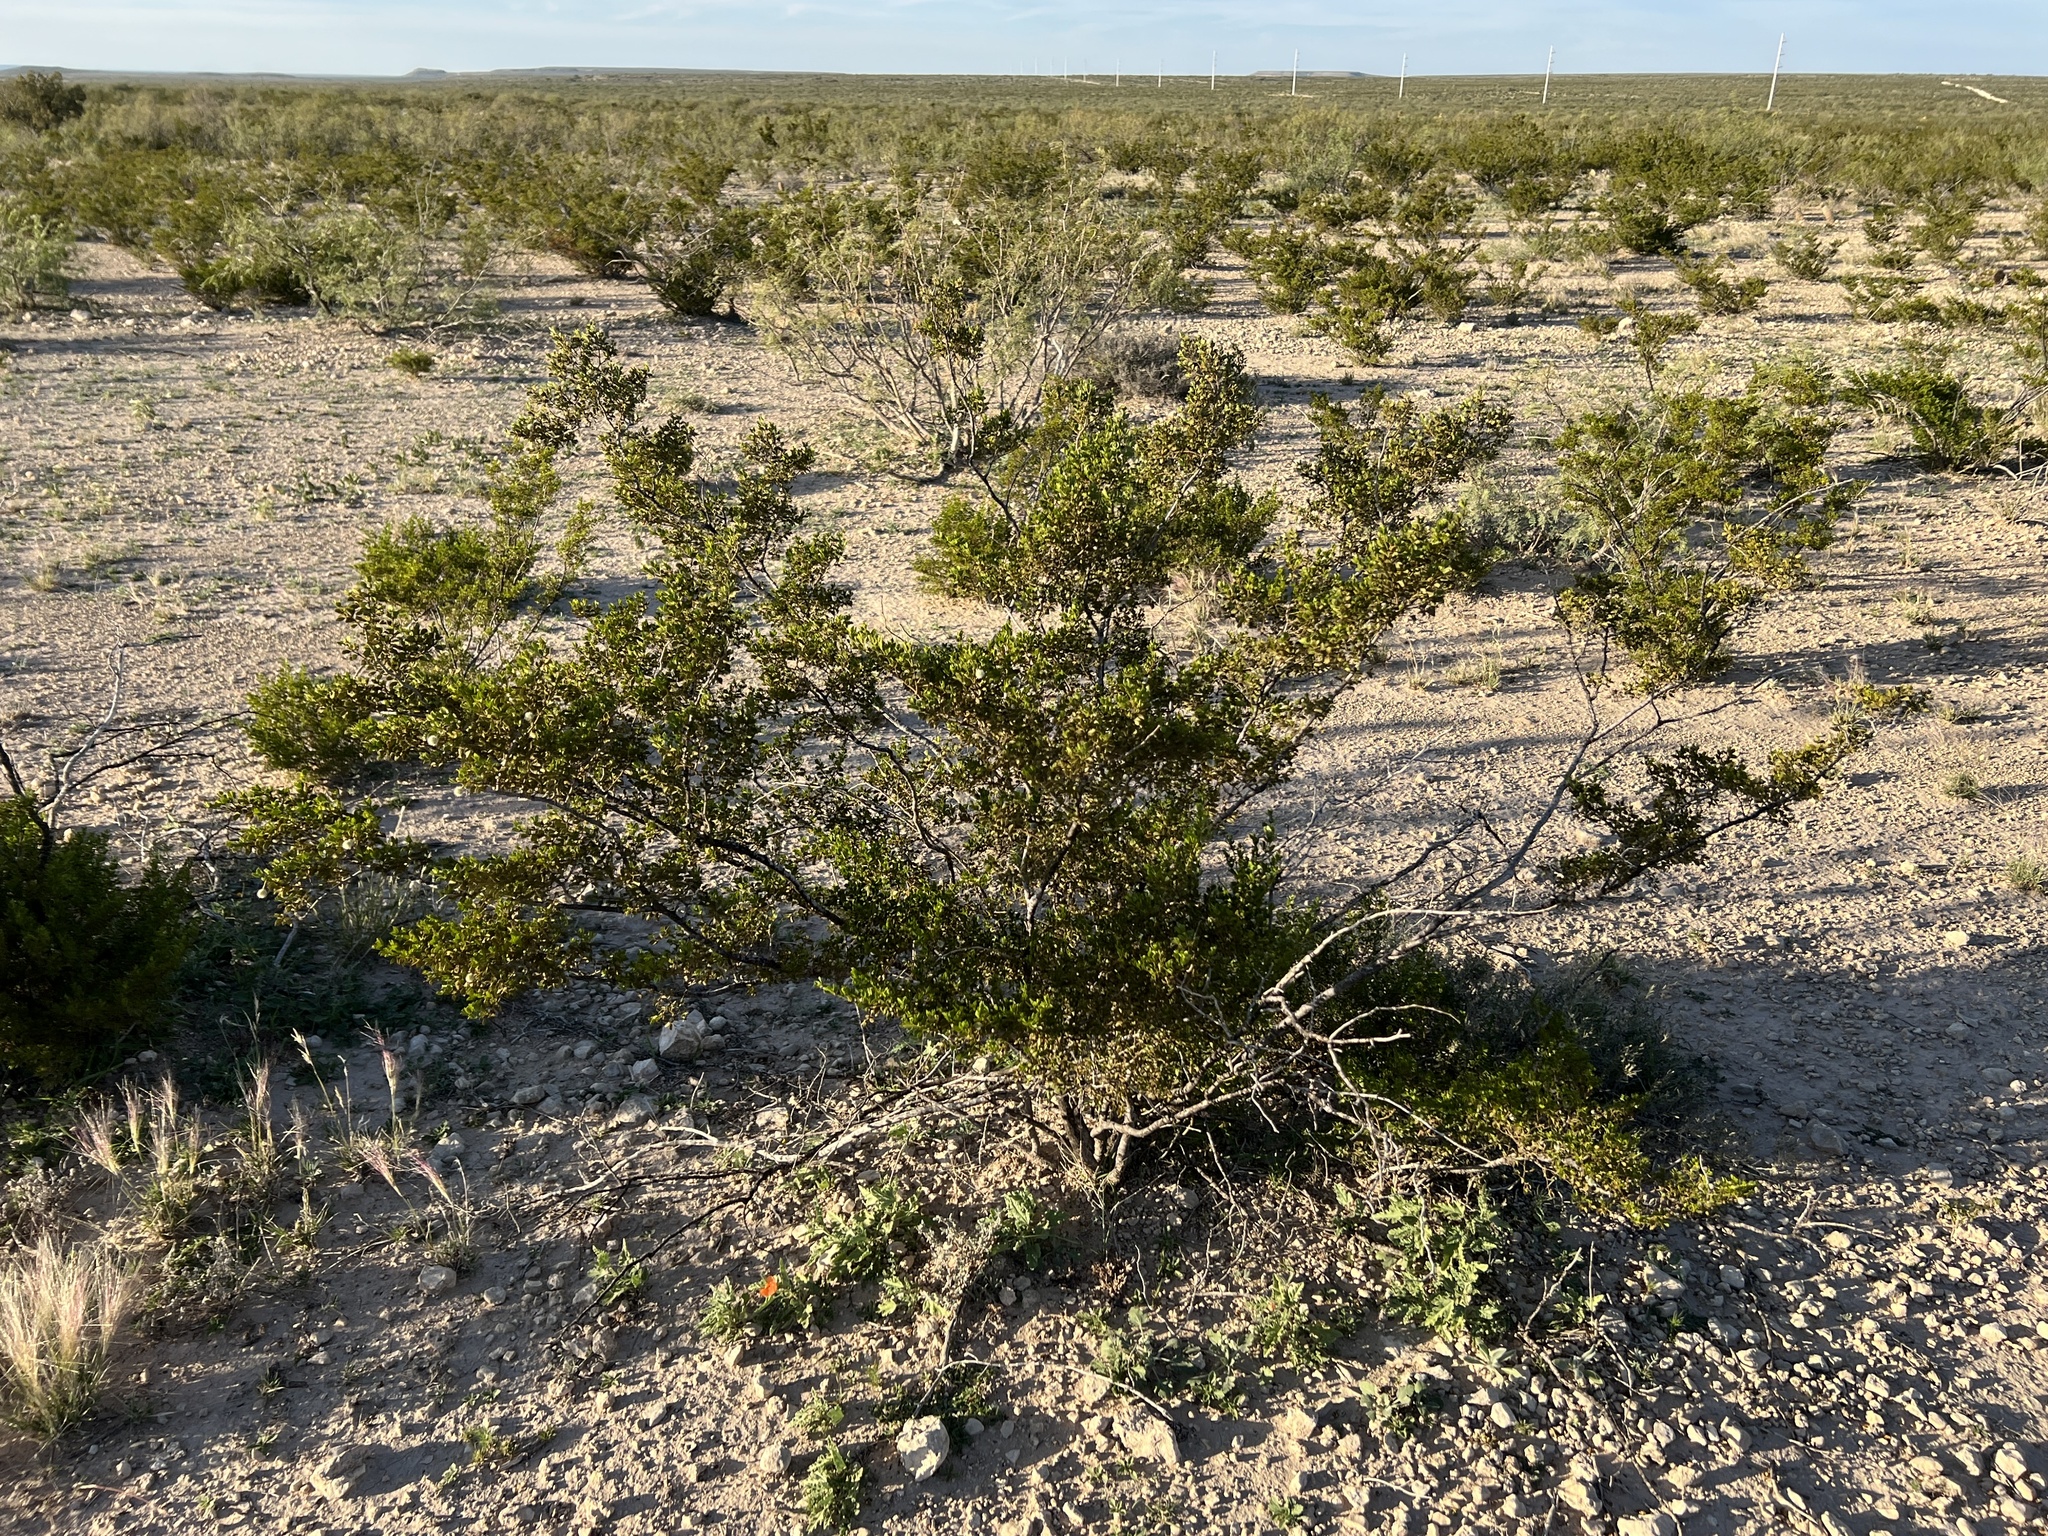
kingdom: Plantae
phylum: Tracheophyta
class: Magnoliopsida
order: Zygophyllales
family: Zygophyllaceae
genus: Larrea
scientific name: Larrea tridentata
